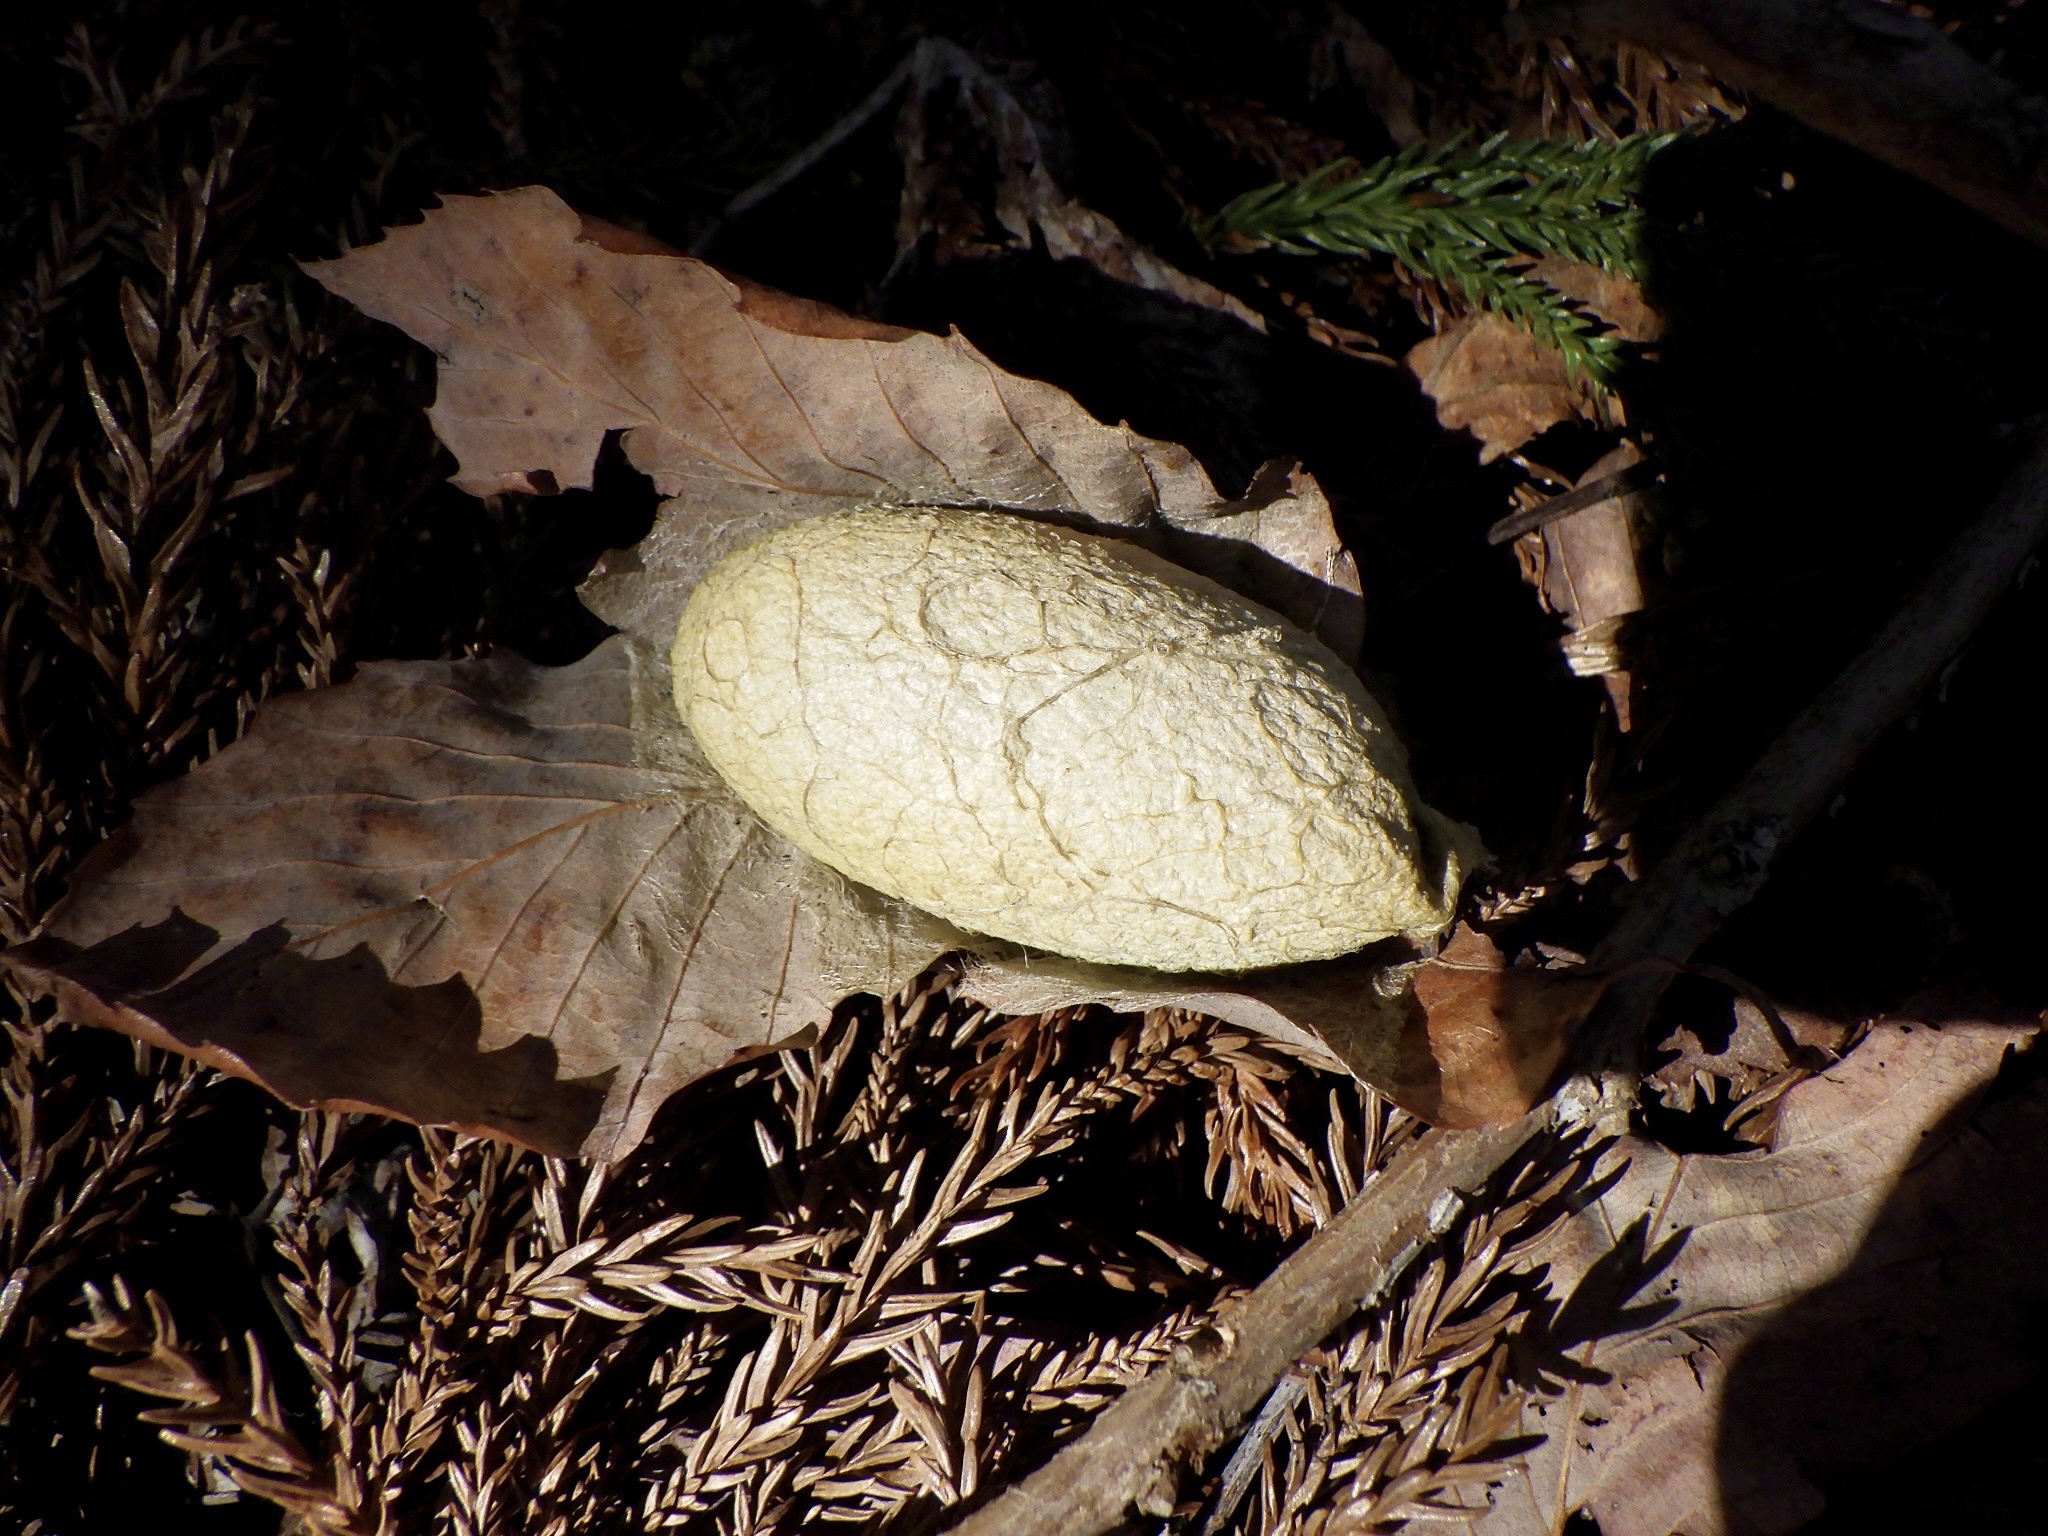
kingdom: Animalia
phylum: Arthropoda
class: Insecta
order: Lepidoptera
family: Saturniidae
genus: Antheraea
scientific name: Antheraea yamamai
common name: Japanese oak silk moth
